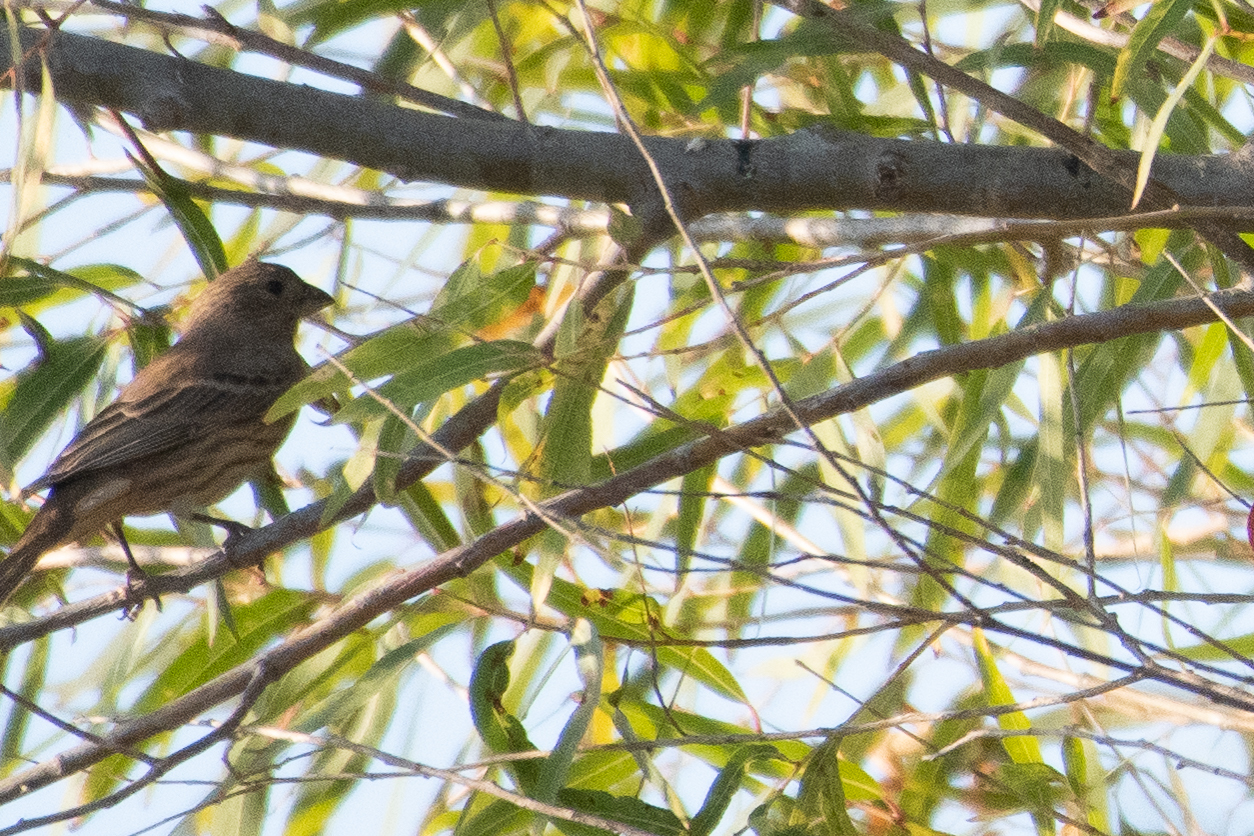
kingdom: Animalia
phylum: Chordata
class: Aves
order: Passeriformes
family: Fringillidae
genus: Haemorhous
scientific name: Haemorhous mexicanus
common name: House finch
